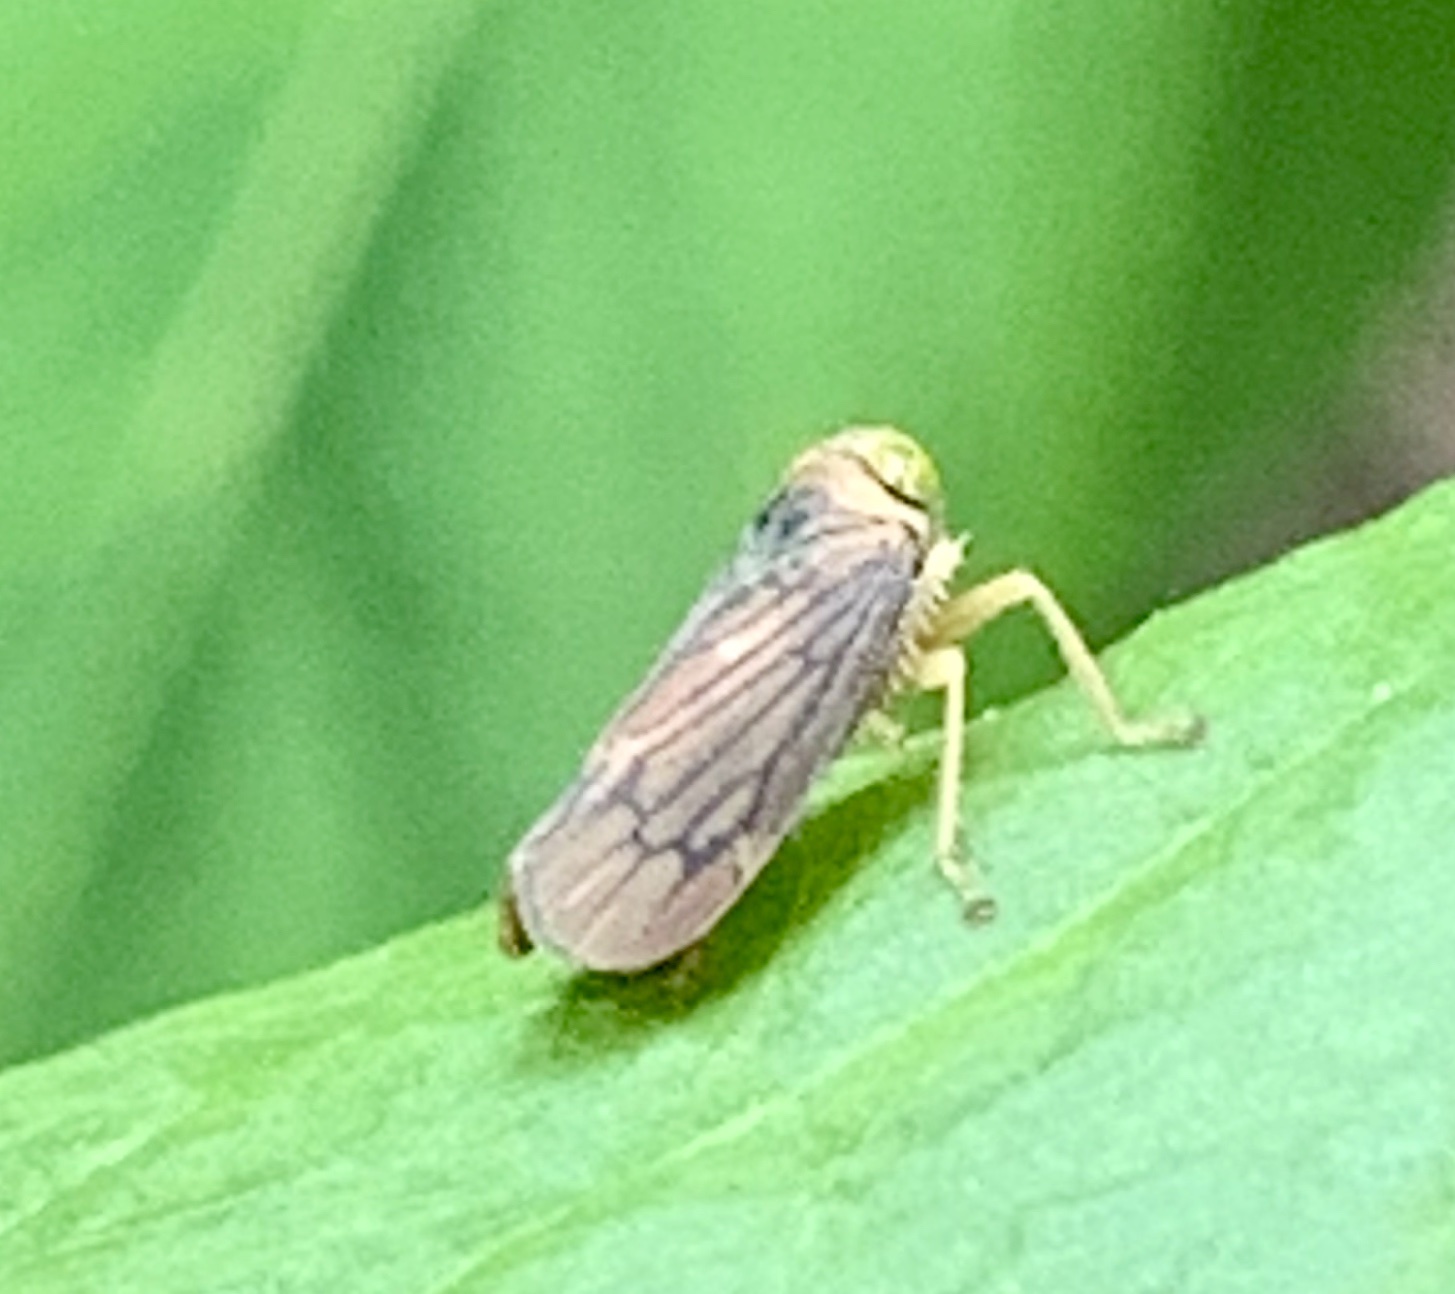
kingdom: Animalia
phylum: Arthropoda
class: Insecta
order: Hemiptera
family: Cicadellidae
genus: Jikradia
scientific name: Jikradia olitoria
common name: Coppery leafhopper
